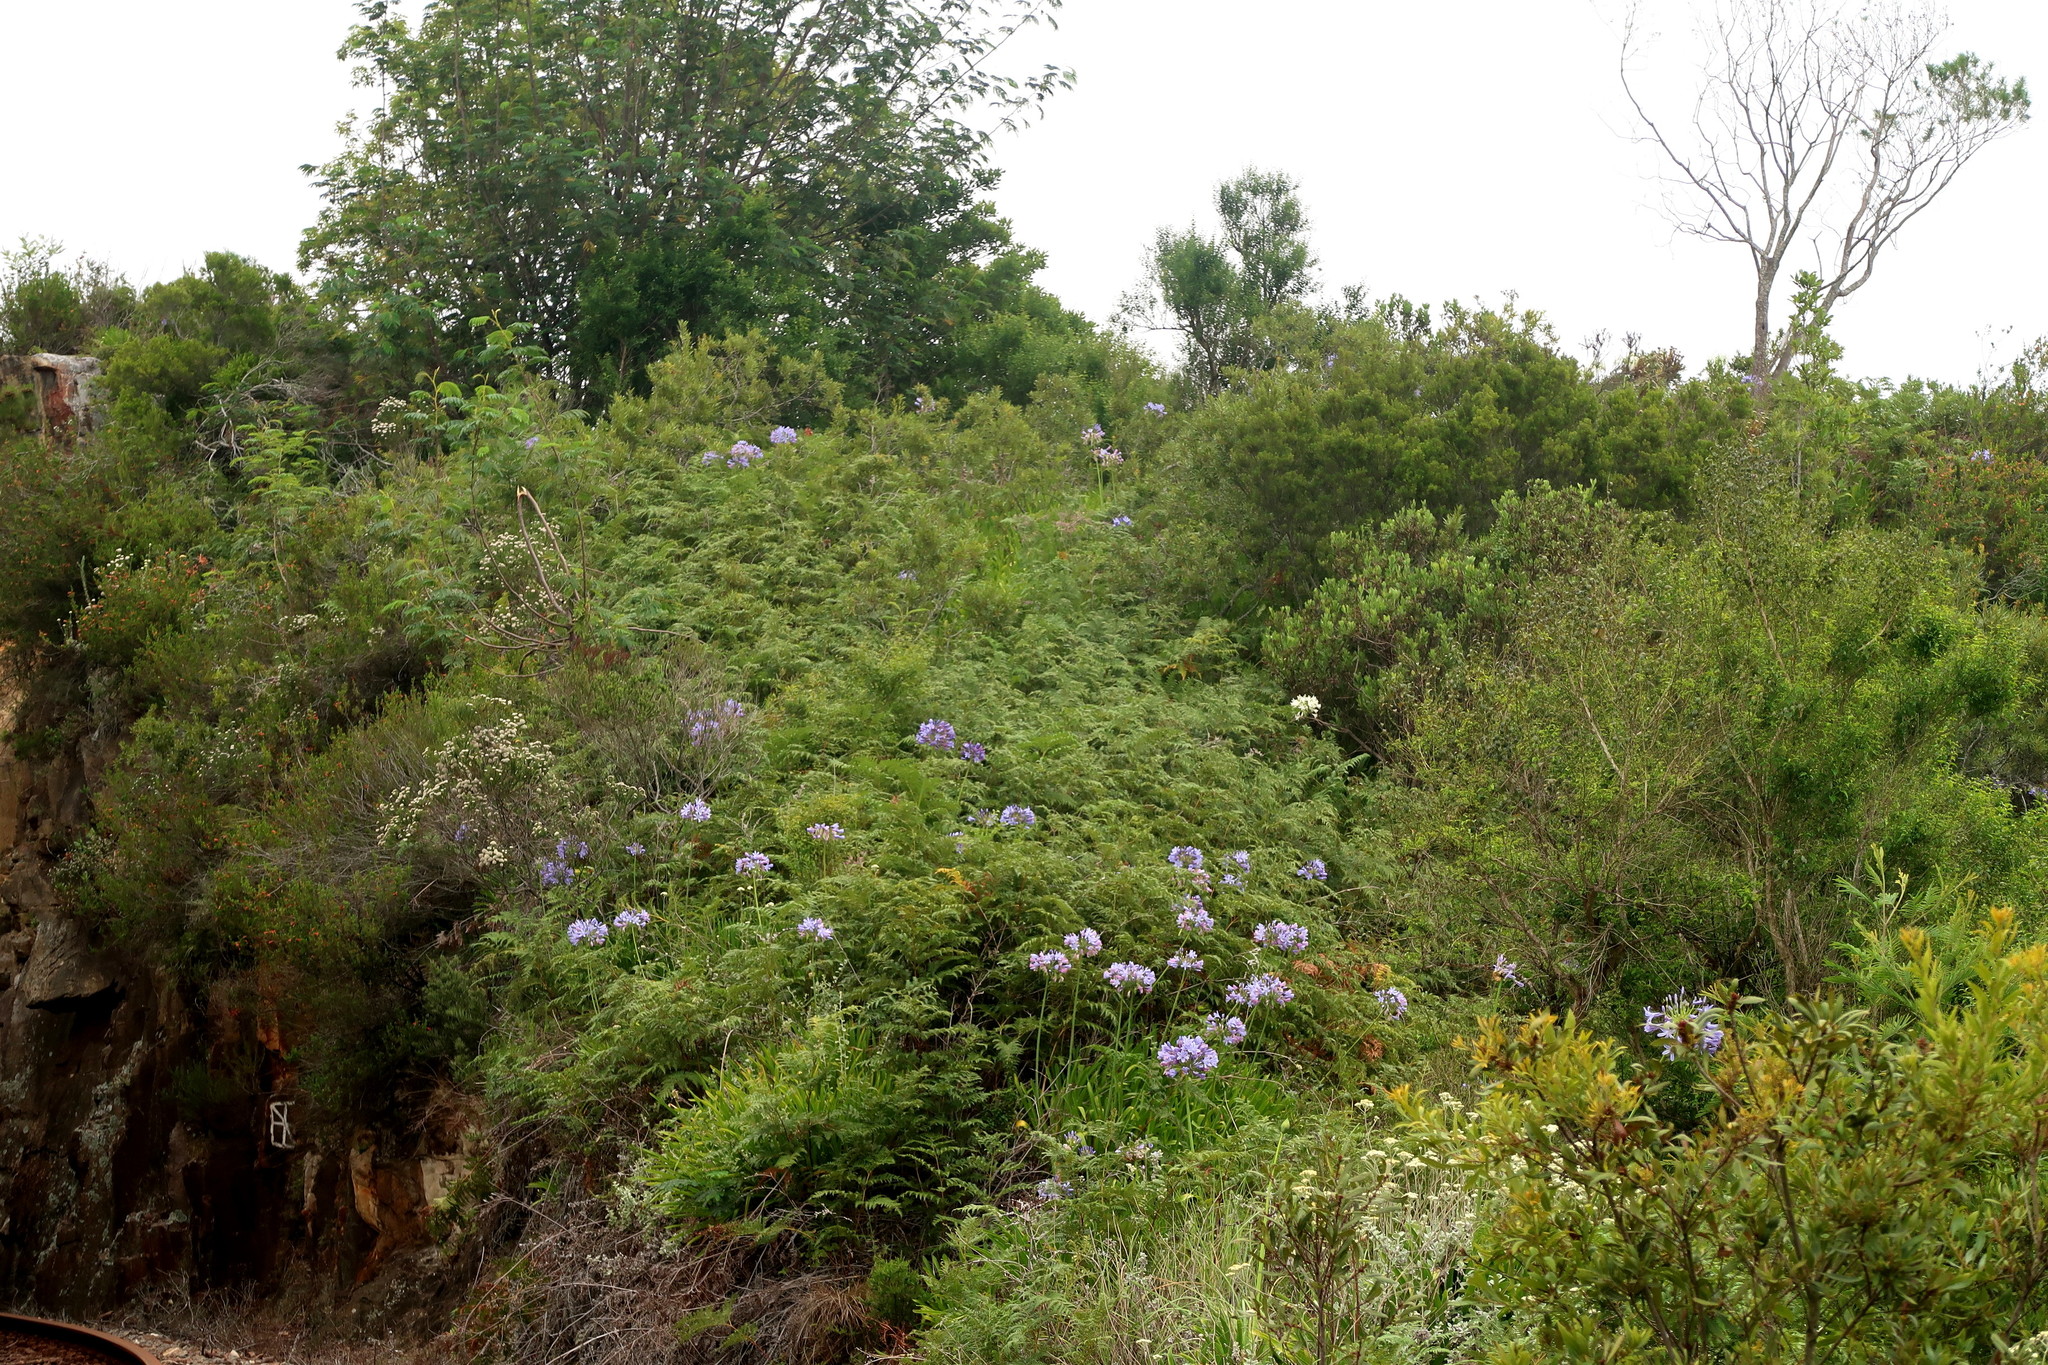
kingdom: Plantae
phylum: Tracheophyta
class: Liliopsida
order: Asparagales
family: Amaryllidaceae
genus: Agapanthus
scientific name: Agapanthus praecox
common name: African-lily
